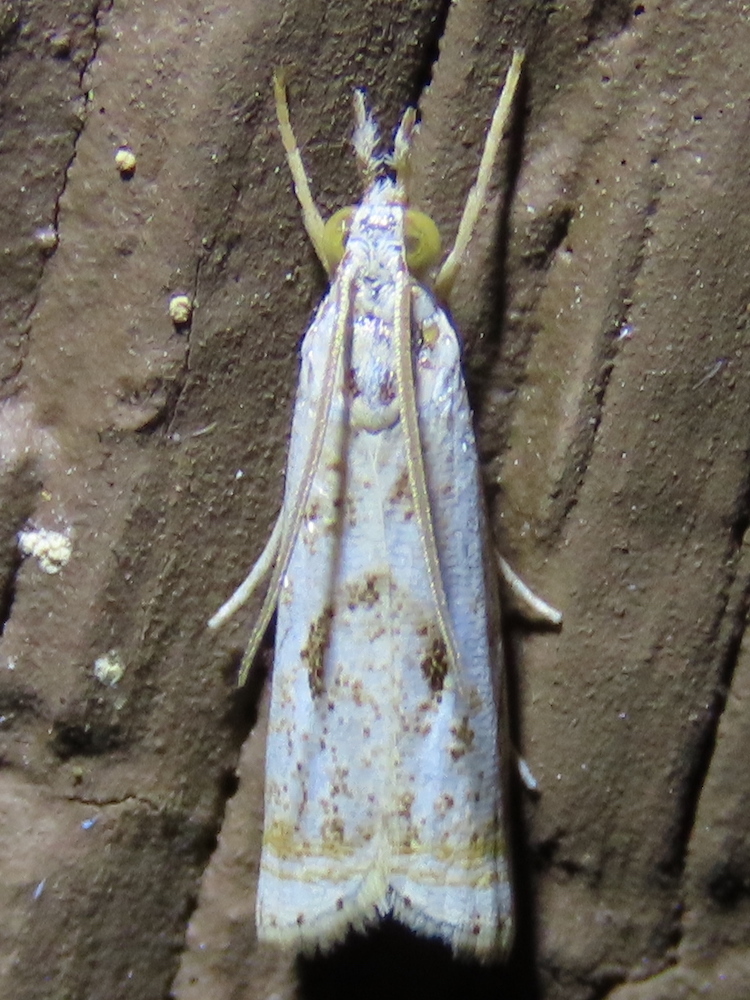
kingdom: Animalia
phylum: Arthropoda
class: Insecta
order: Lepidoptera
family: Crambidae
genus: Microcrambus
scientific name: Microcrambus elegans
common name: Elegant grass-veneer
